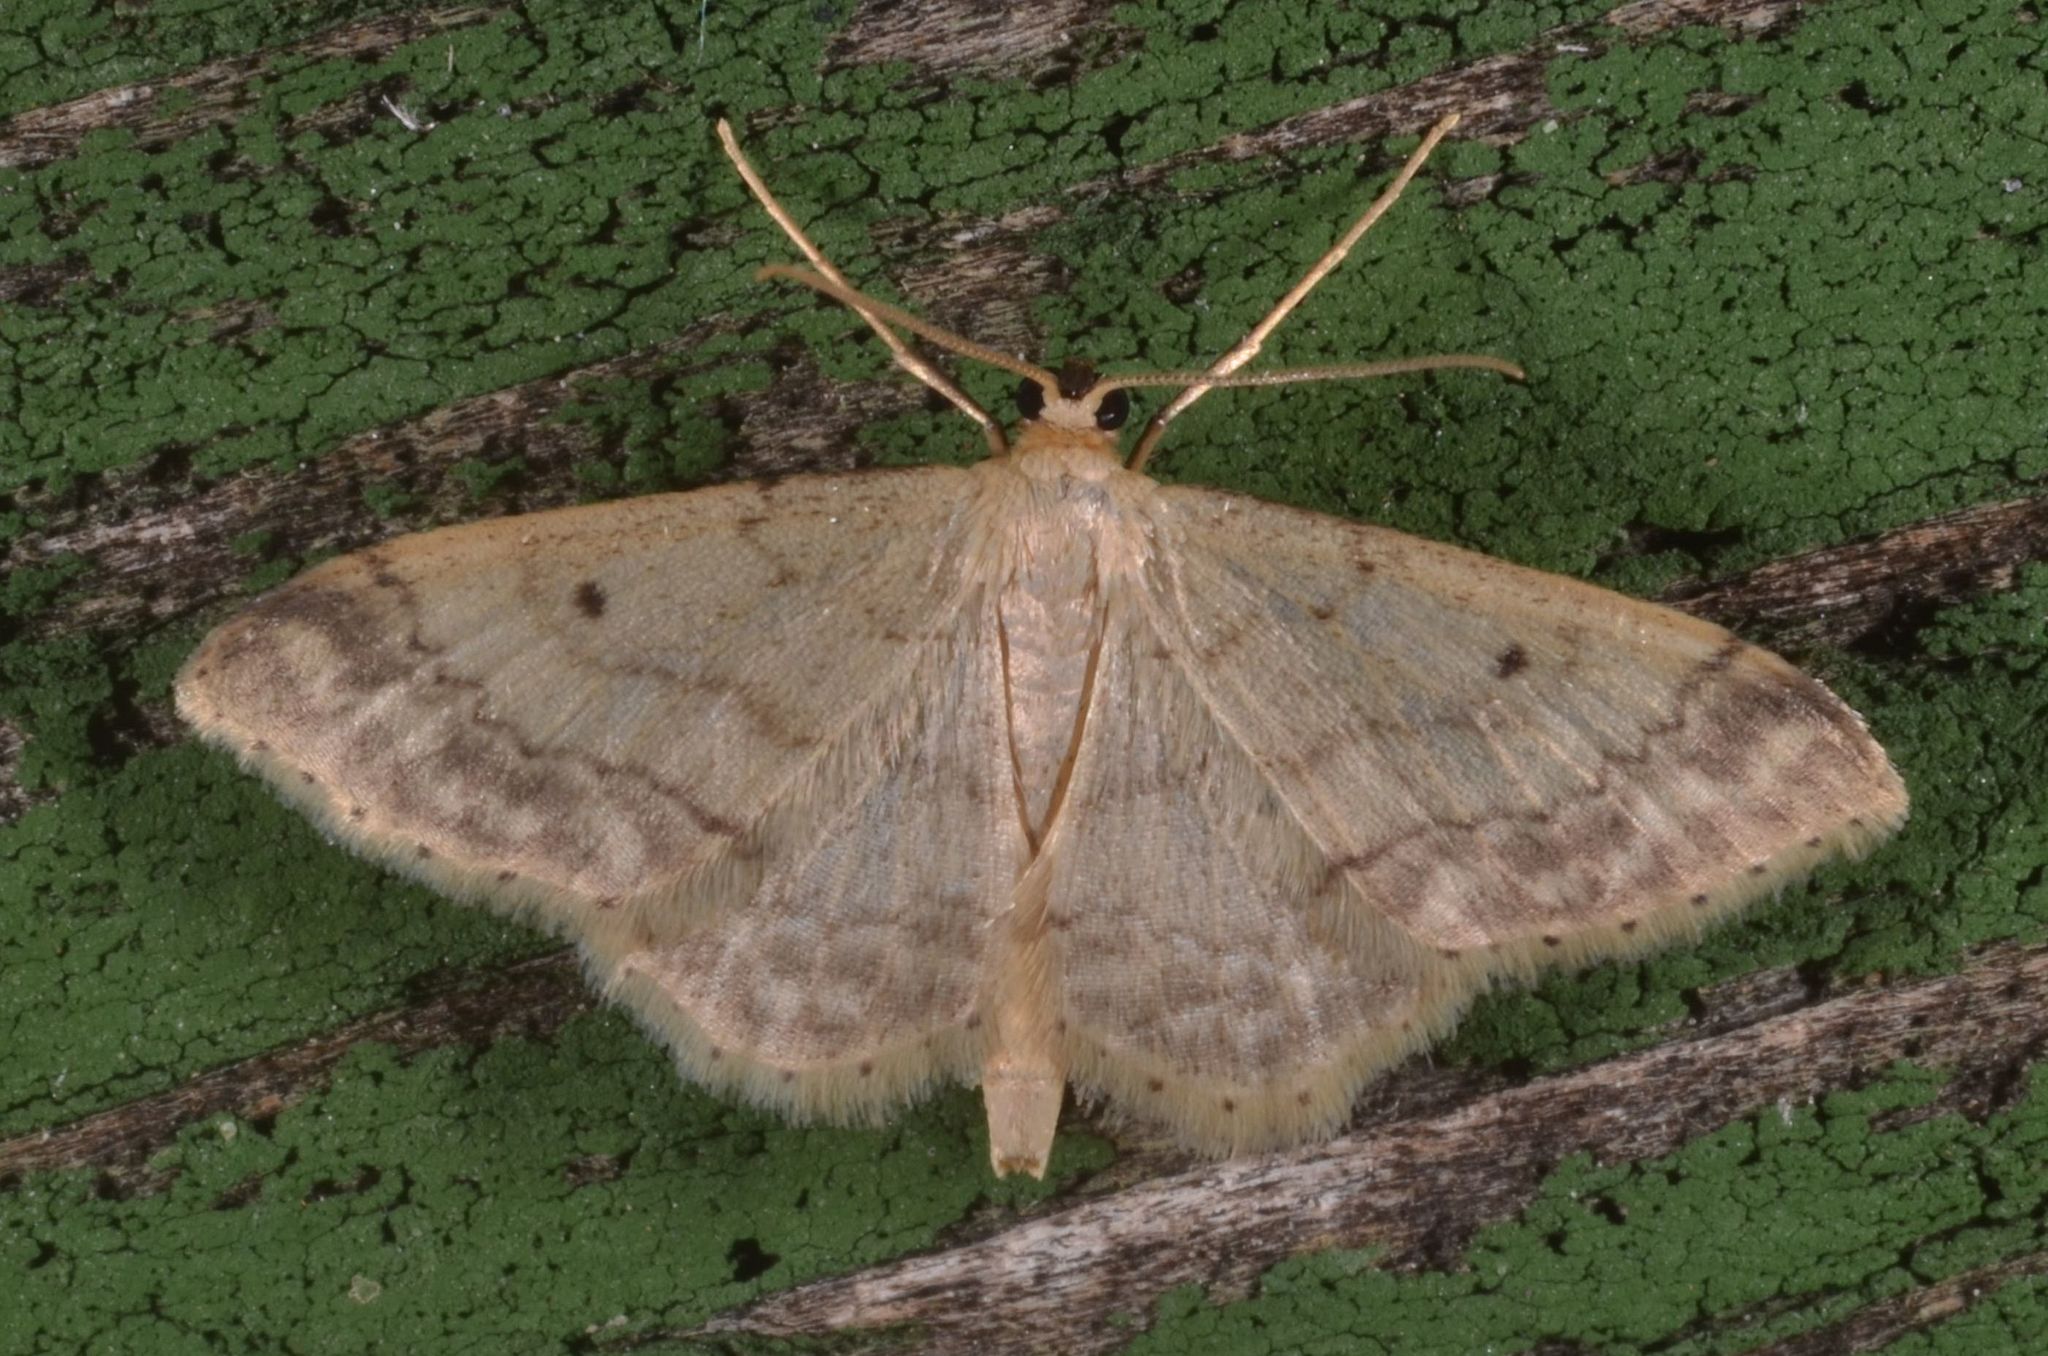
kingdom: Animalia
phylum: Arthropoda
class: Insecta
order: Lepidoptera
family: Geometridae
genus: Idaea
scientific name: Idaea biselata
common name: Small fan-footed wave
